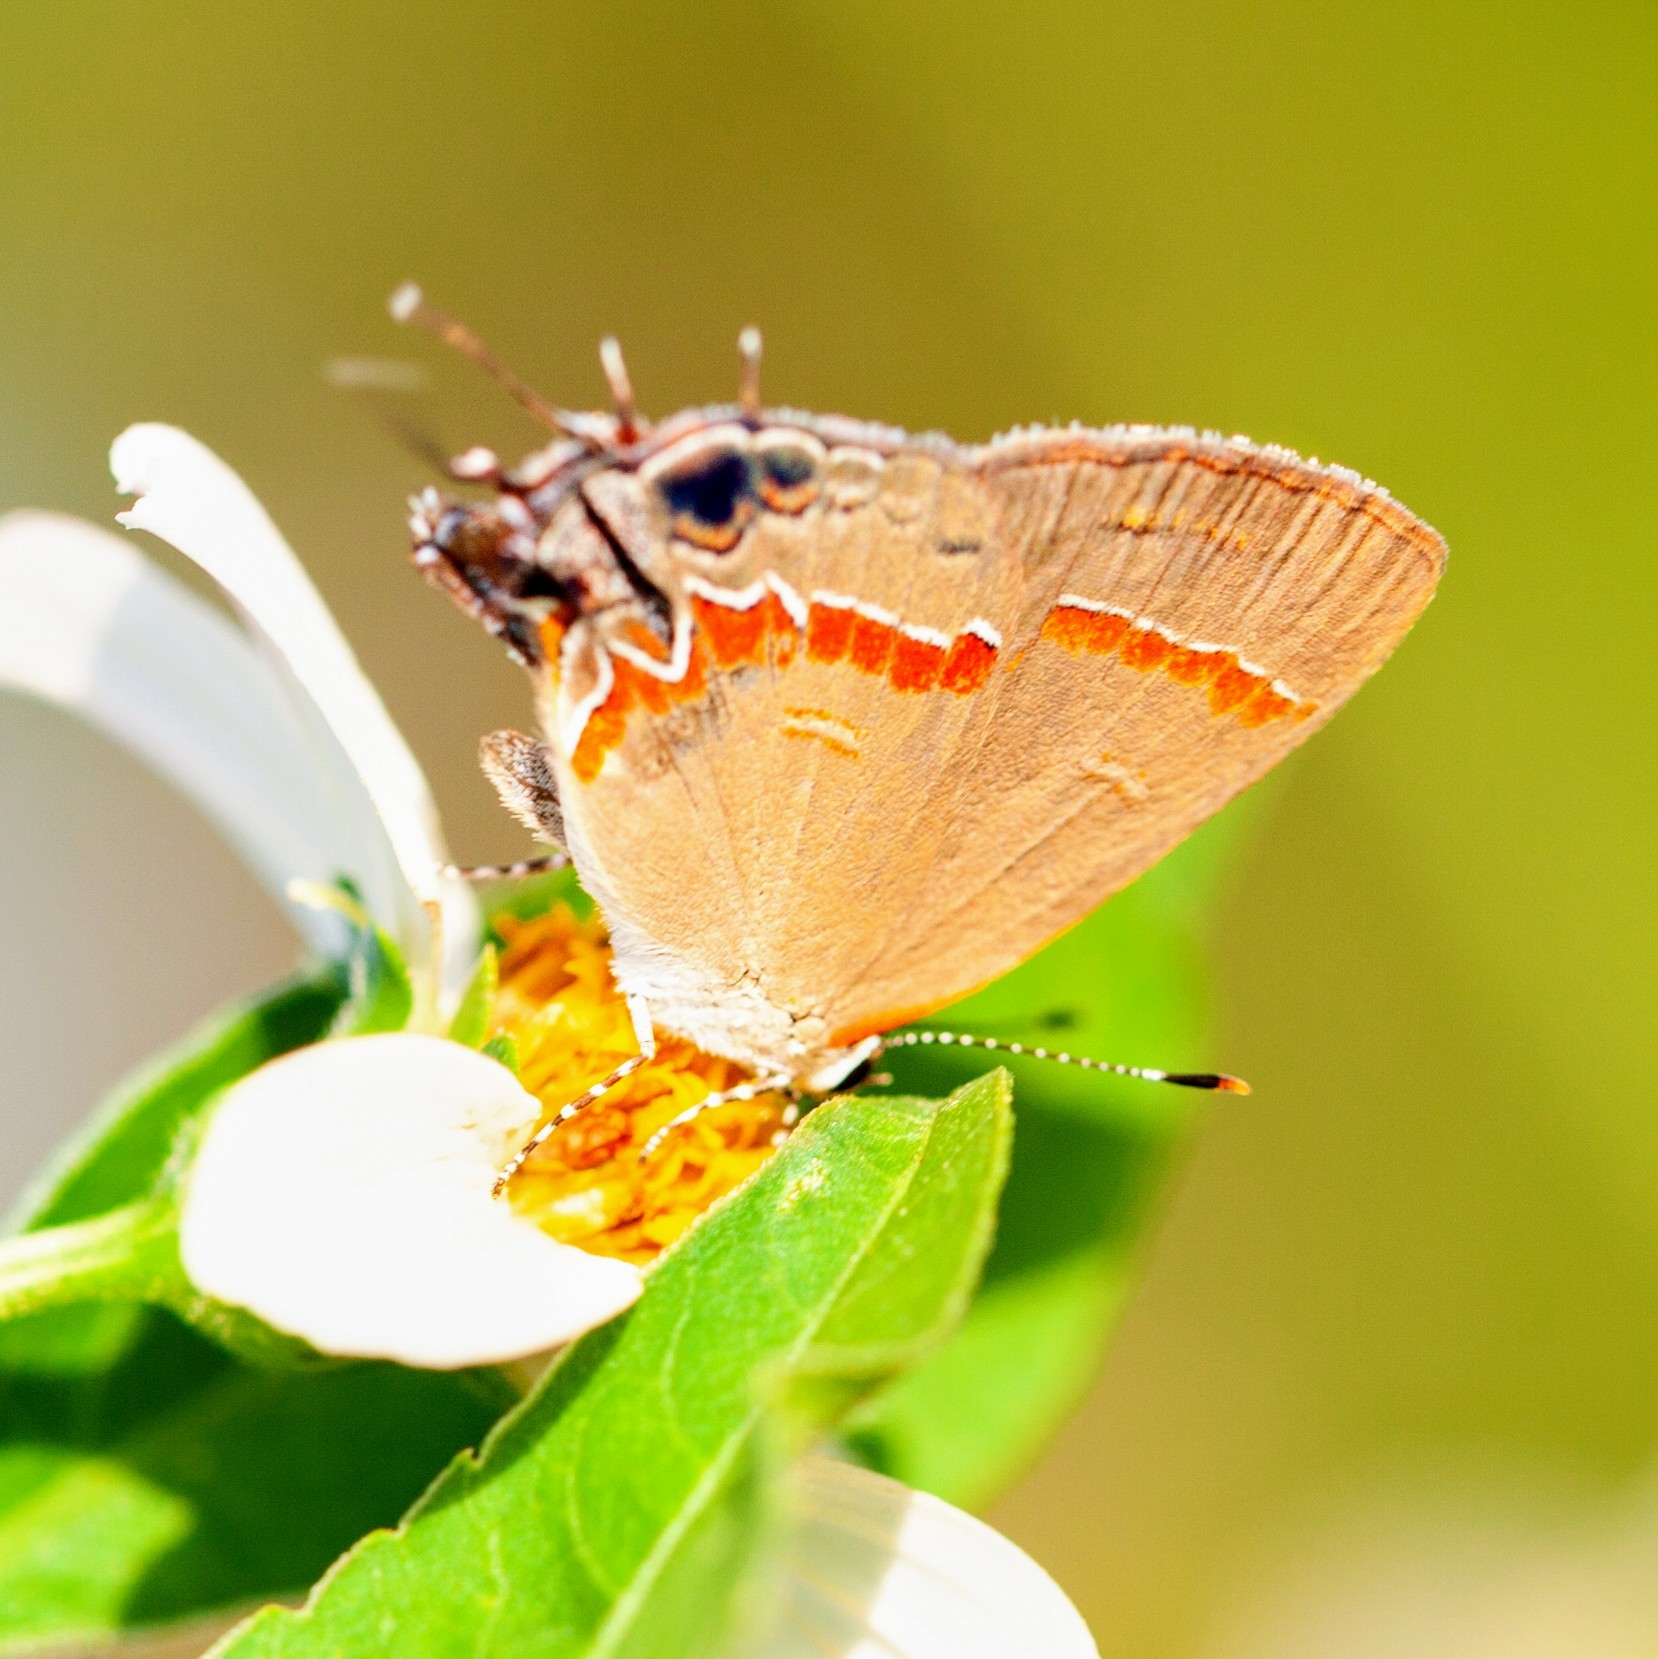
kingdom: Animalia
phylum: Arthropoda
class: Insecta
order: Lepidoptera
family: Lycaenidae
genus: Calycopis
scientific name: Calycopis cecrops
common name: Red-banded hairstreak
